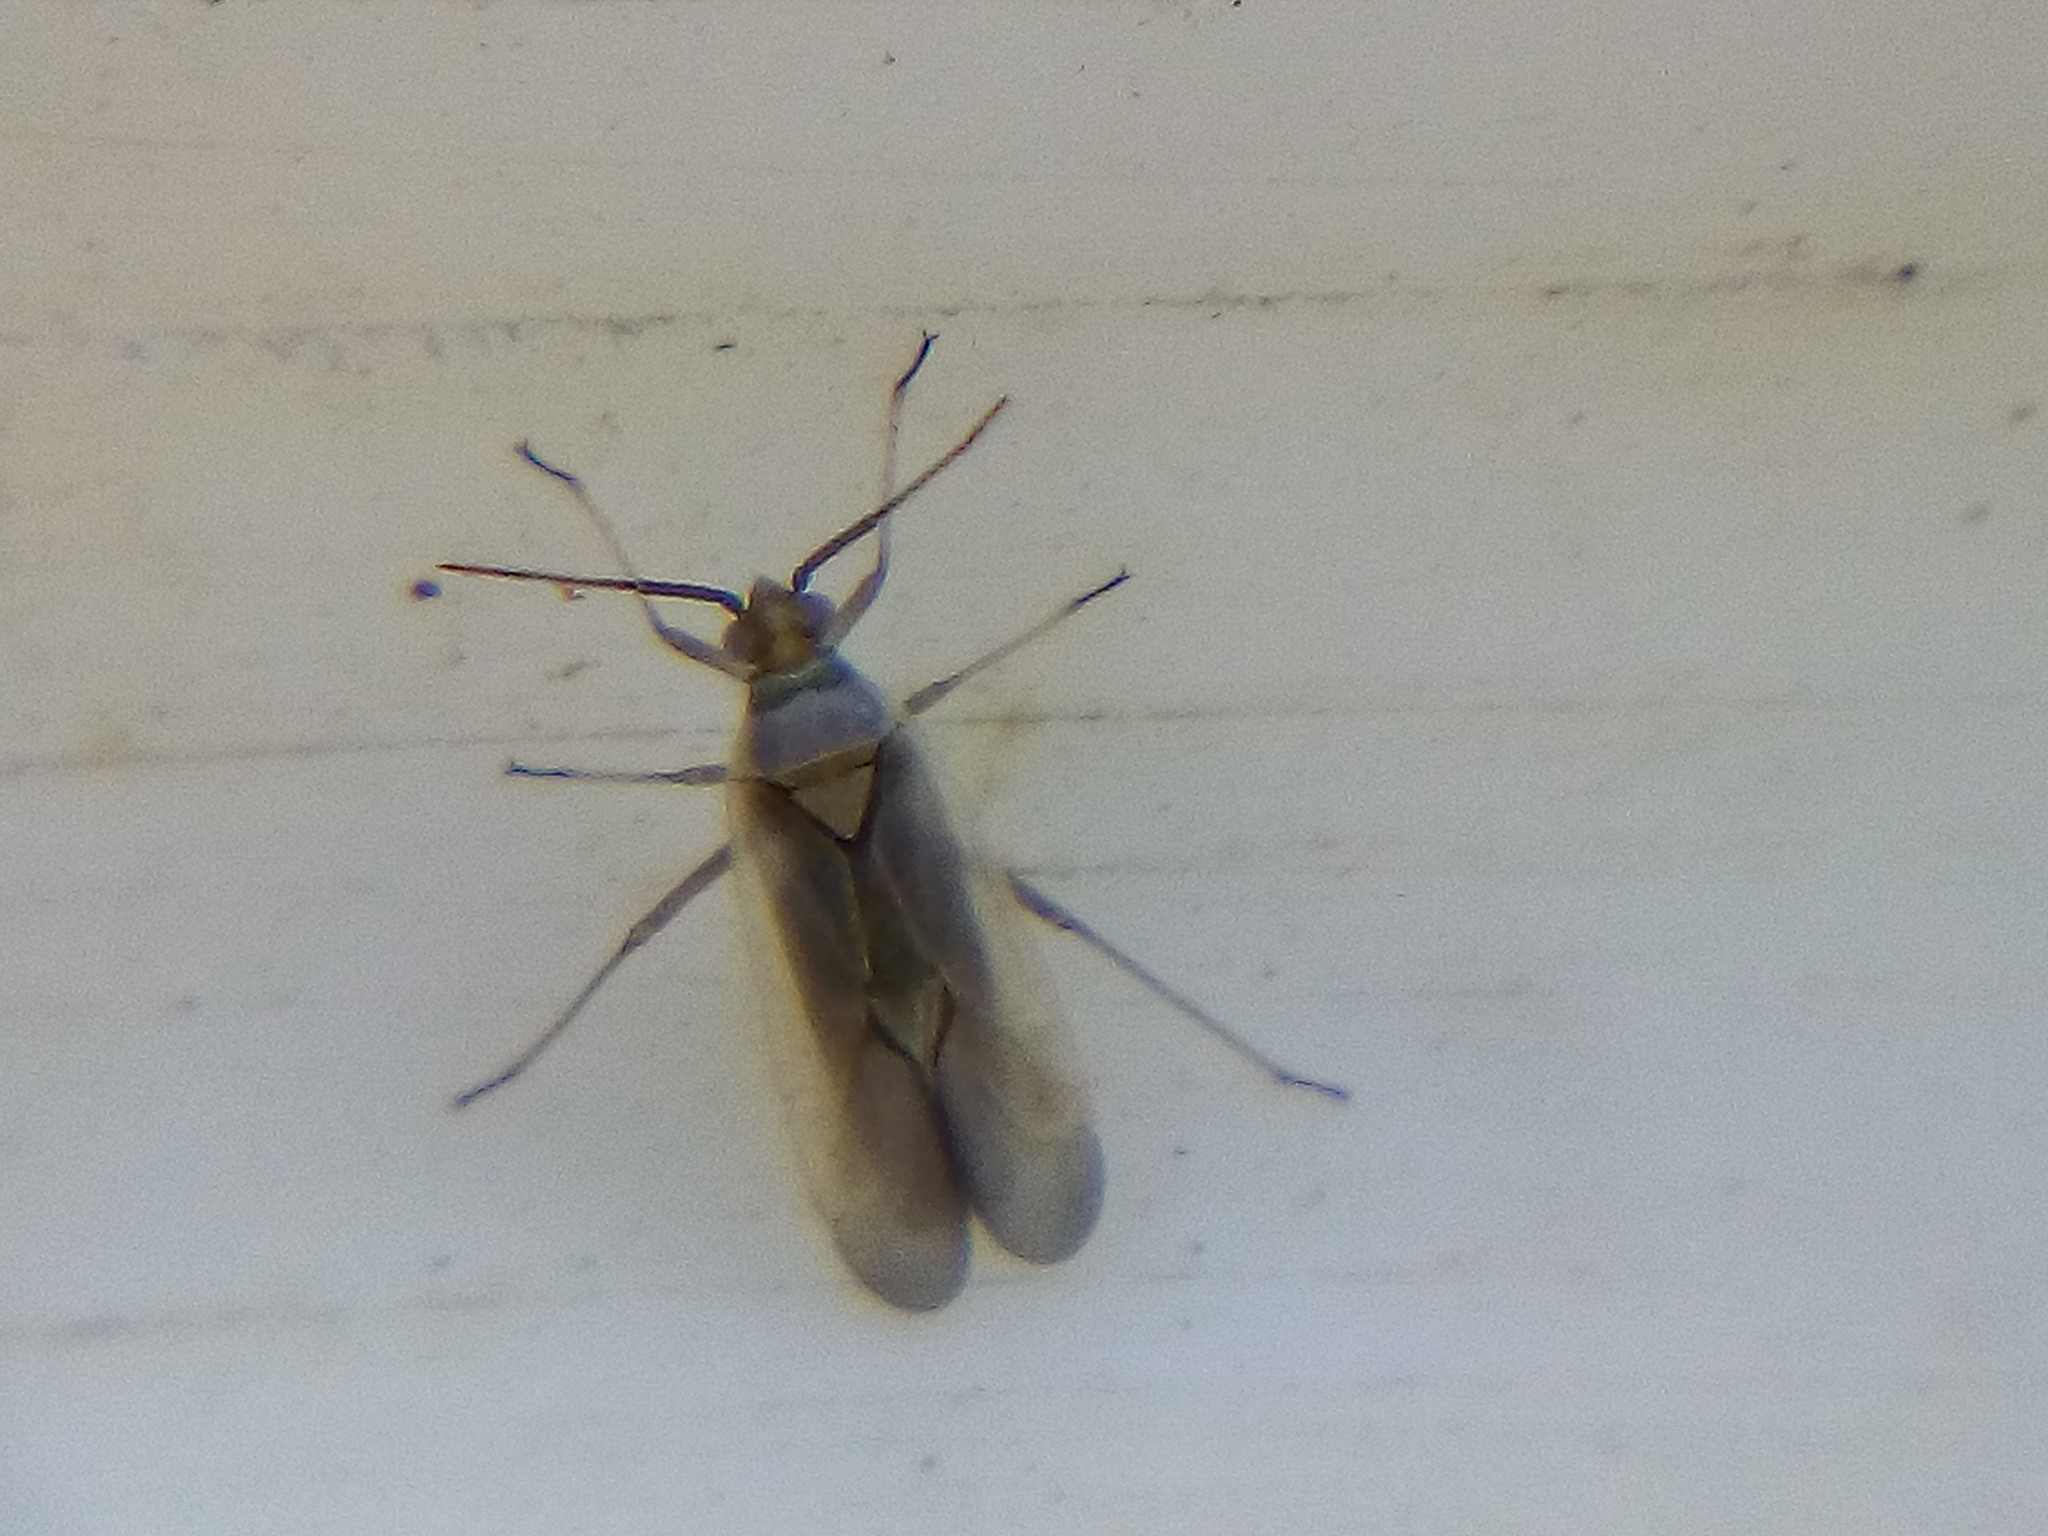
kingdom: Animalia
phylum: Arthropoda
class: Insecta
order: Hemiptera
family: Miridae
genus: Lopus
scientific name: Lopus decolor
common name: Plant bug
